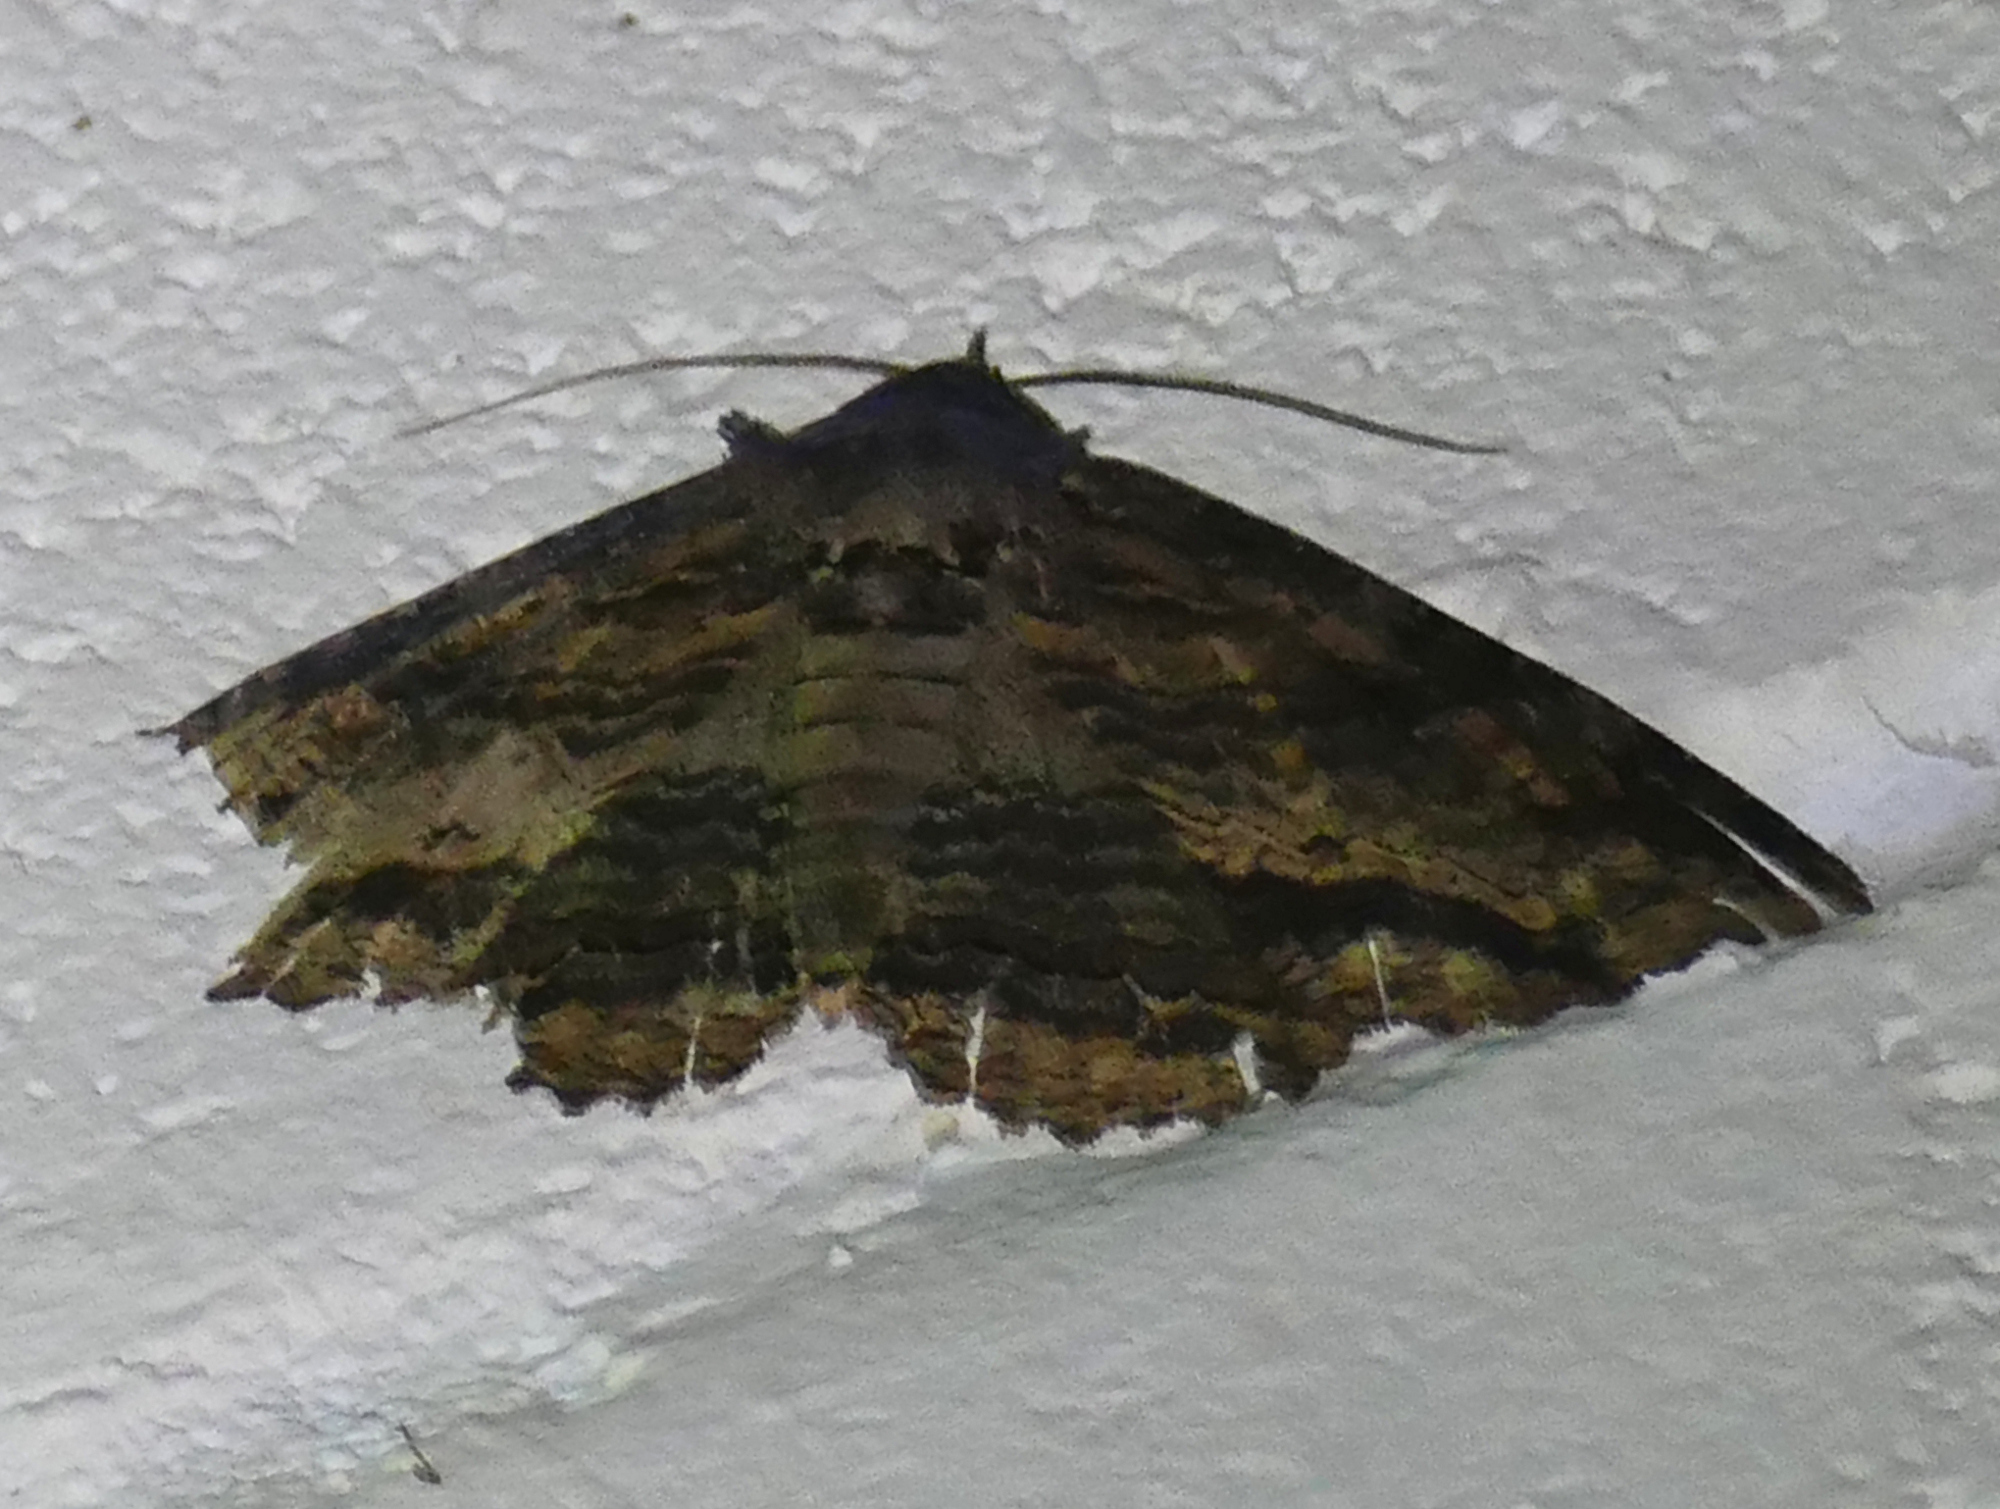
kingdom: Animalia
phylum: Arthropoda
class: Insecta
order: Lepidoptera
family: Erebidae
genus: Zale
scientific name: Zale lunata
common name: Lunate zale moth
